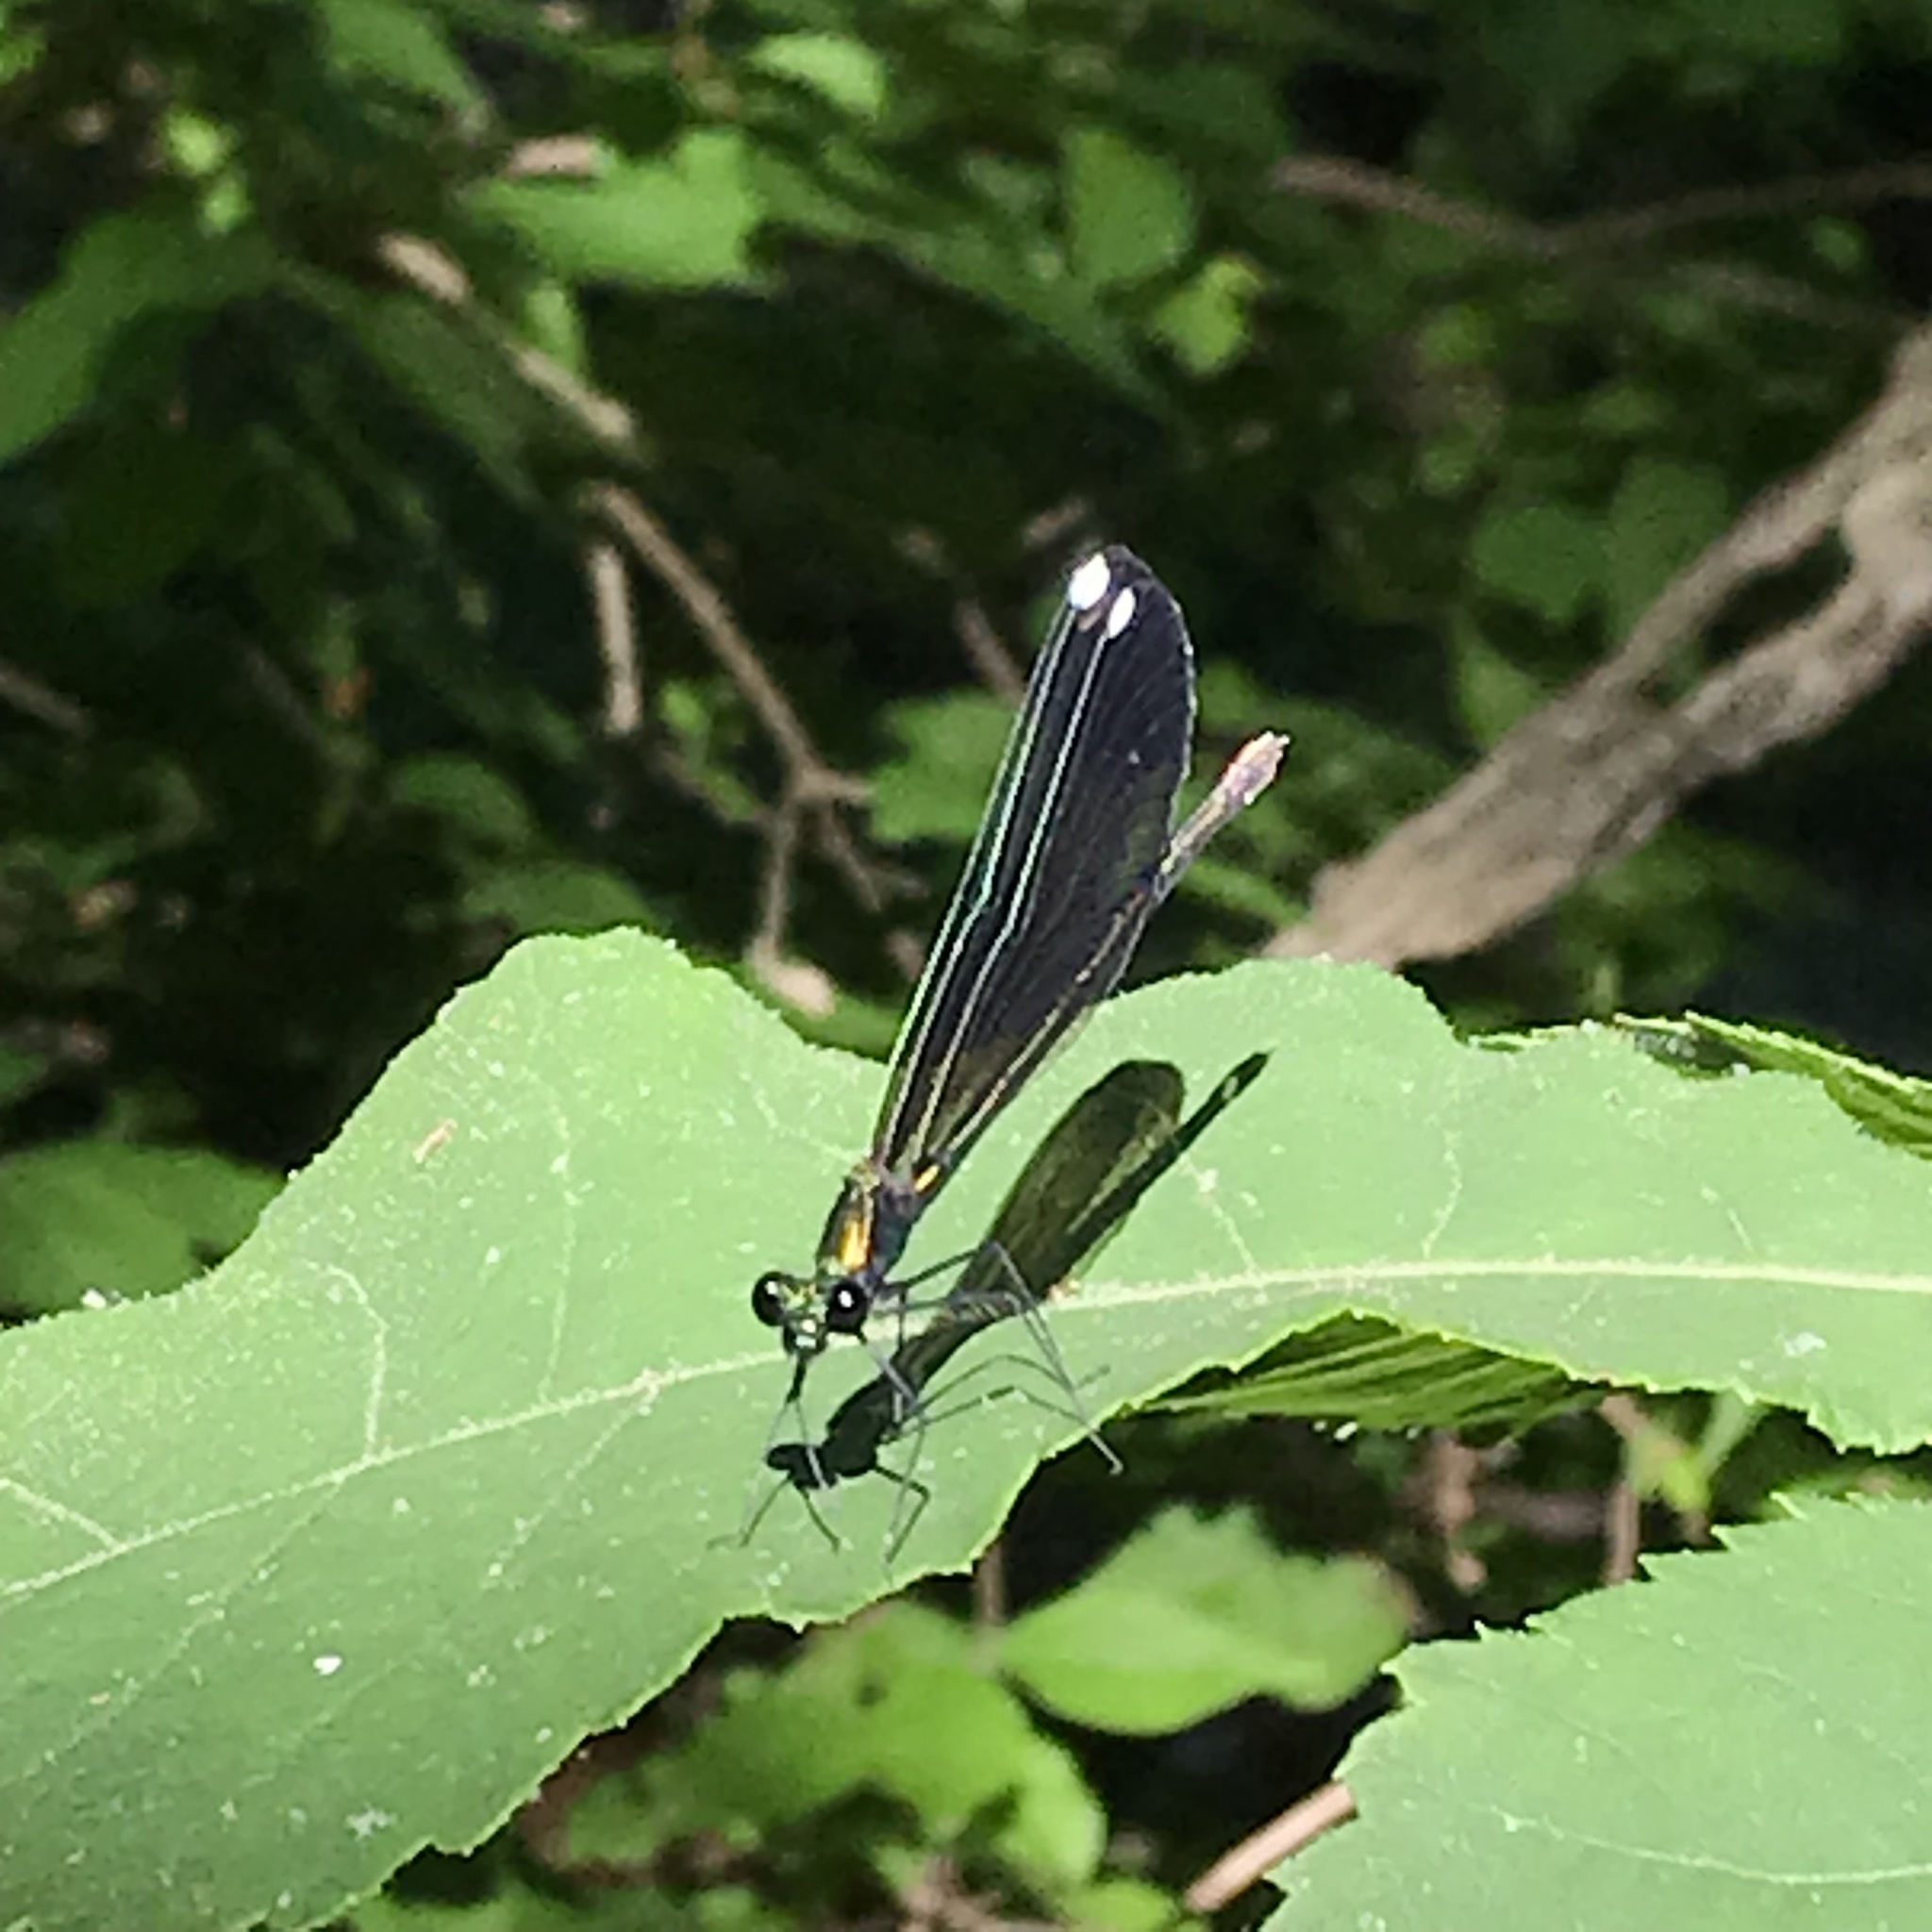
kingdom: Animalia
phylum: Arthropoda
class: Insecta
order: Odonata
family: Calopterygidae
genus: Calopteryx
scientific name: Calopteryx maculata
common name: Ebony jewelwing
